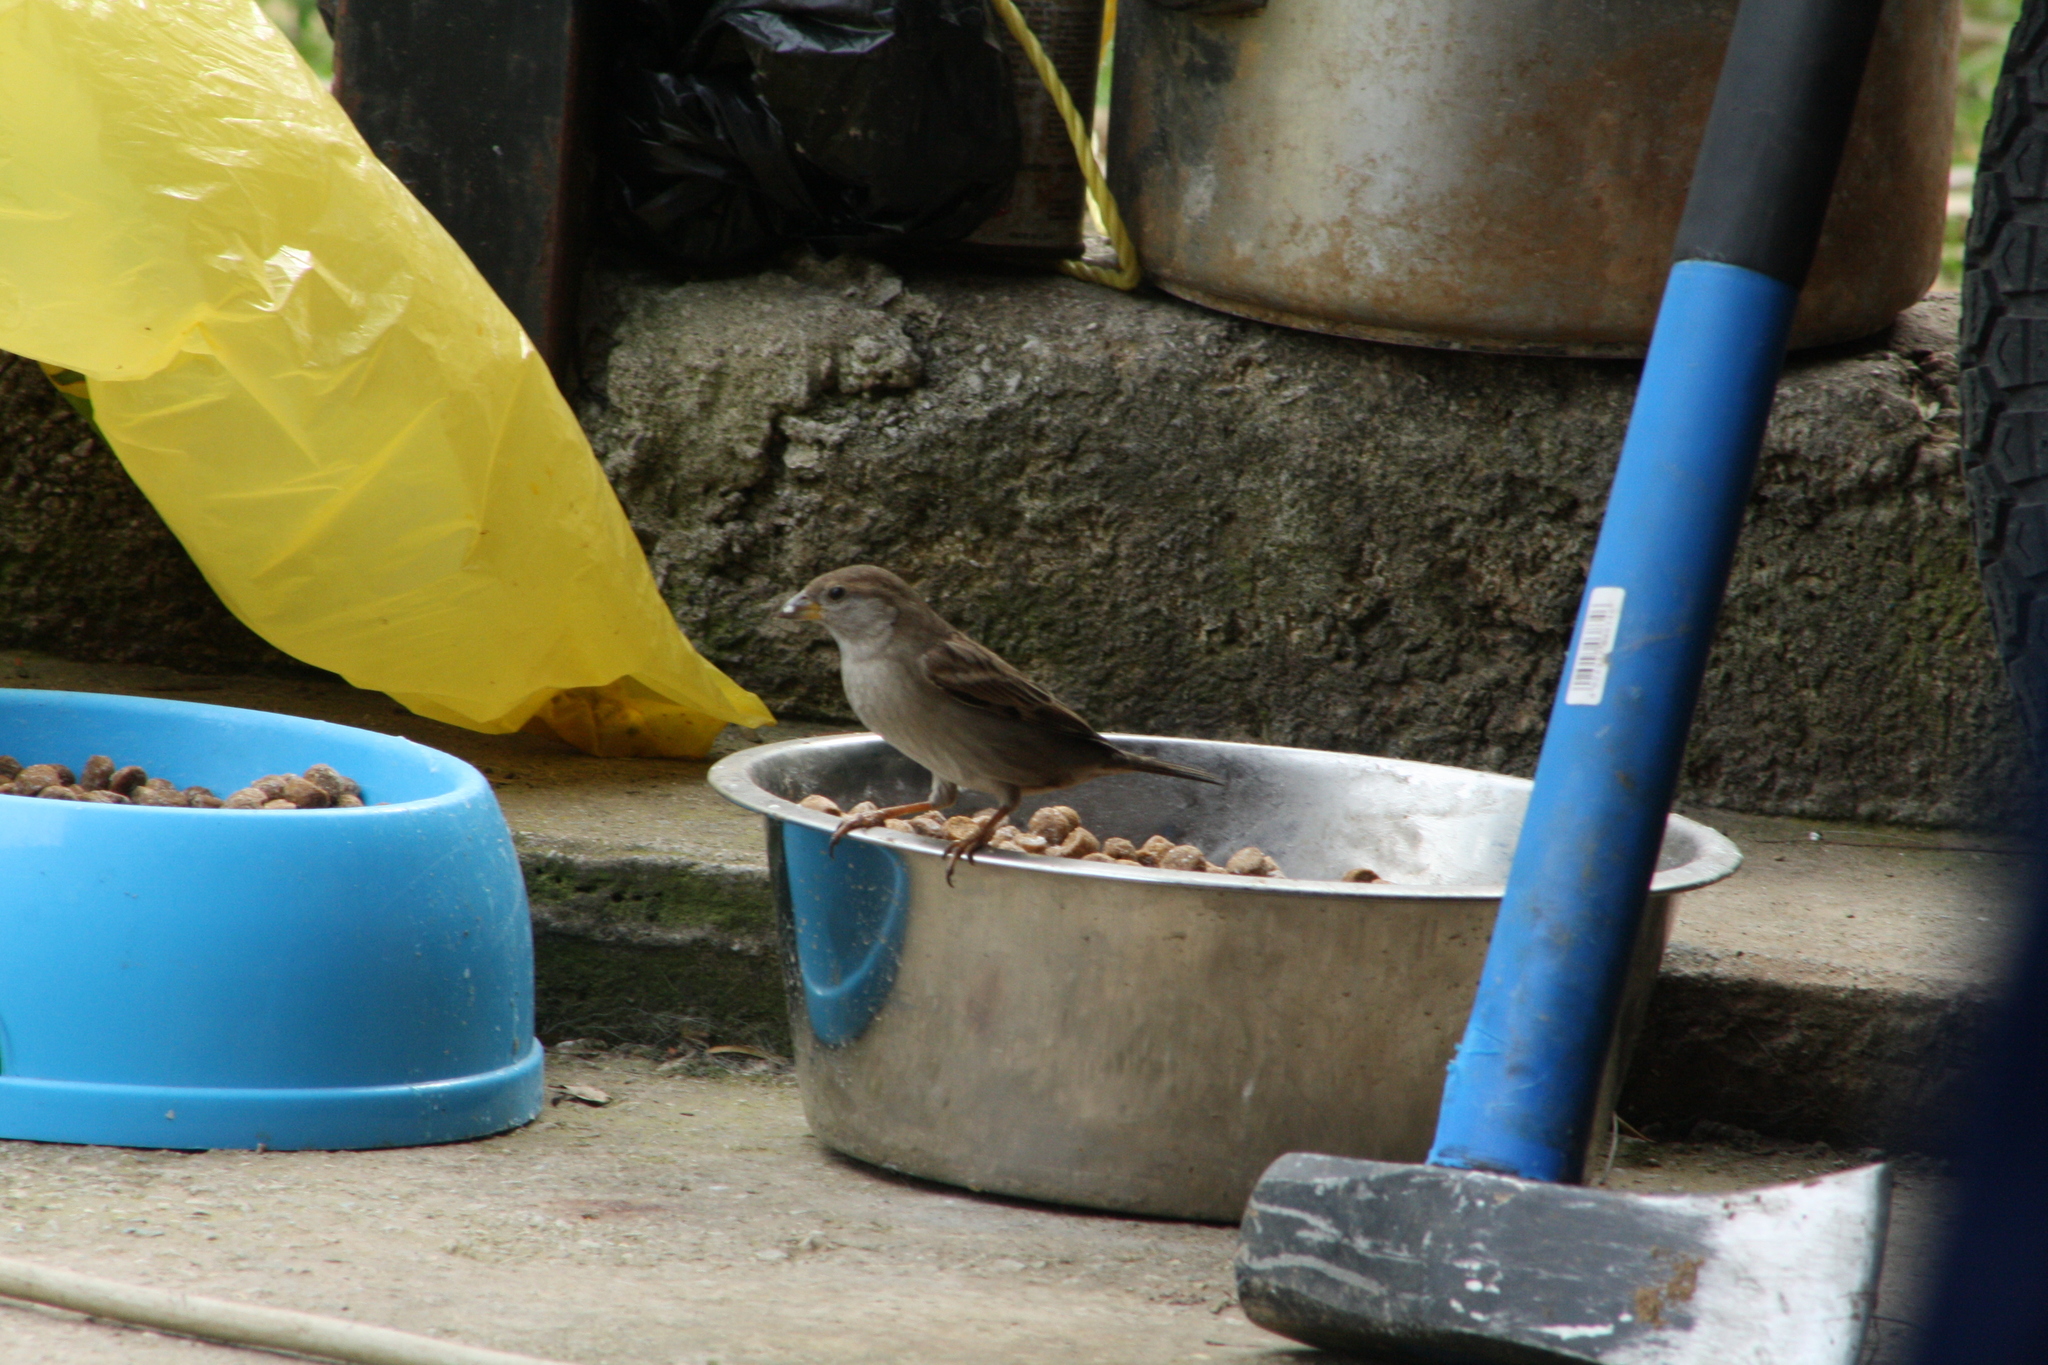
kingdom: Animalia
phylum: Chordata
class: Aves
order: Passeriformes
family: Passeridae
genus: Passer
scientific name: Passer domesticus
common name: House sparrow
